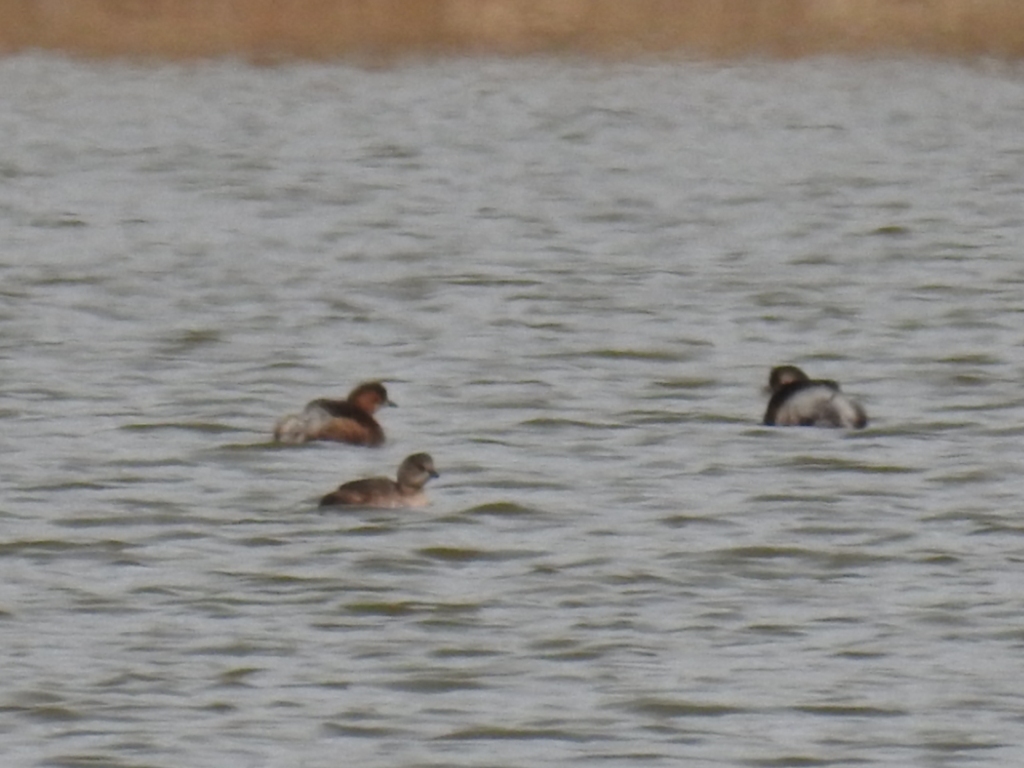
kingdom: Animalia
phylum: Chordata
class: Aves
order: Podicipediformes
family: Podicipedidae
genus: Tachybaptus
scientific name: Tachybaptus ruficollis
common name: Little grebe
